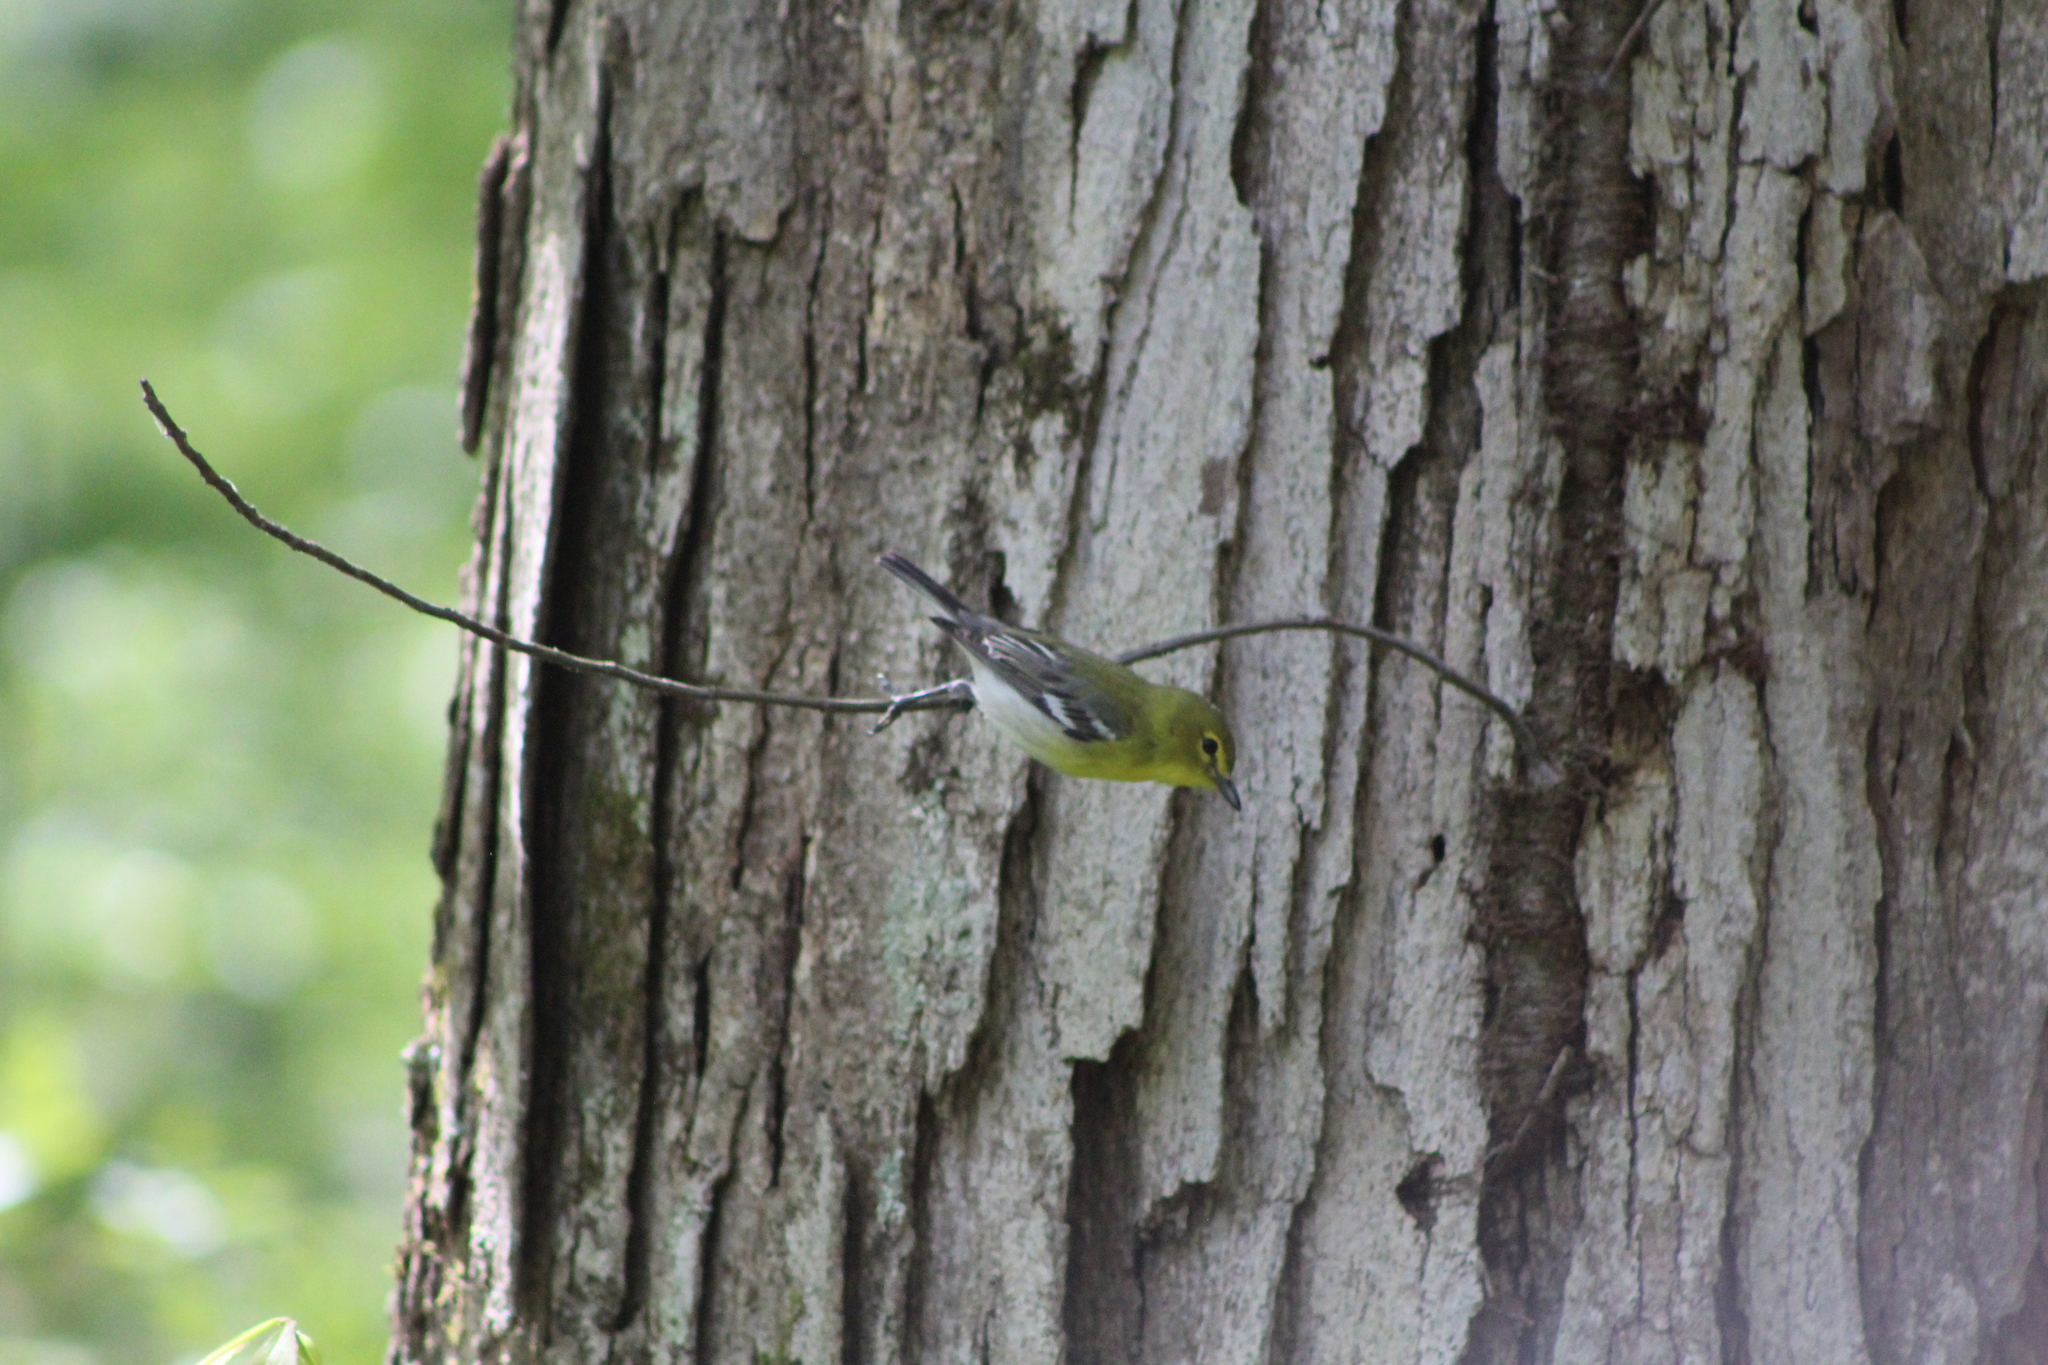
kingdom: Animalia
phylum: Chordata
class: Aves
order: Passeriformes
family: Vireonidae
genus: Vireo
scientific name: Vireo flavifrons
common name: Yellow-throated vireo
